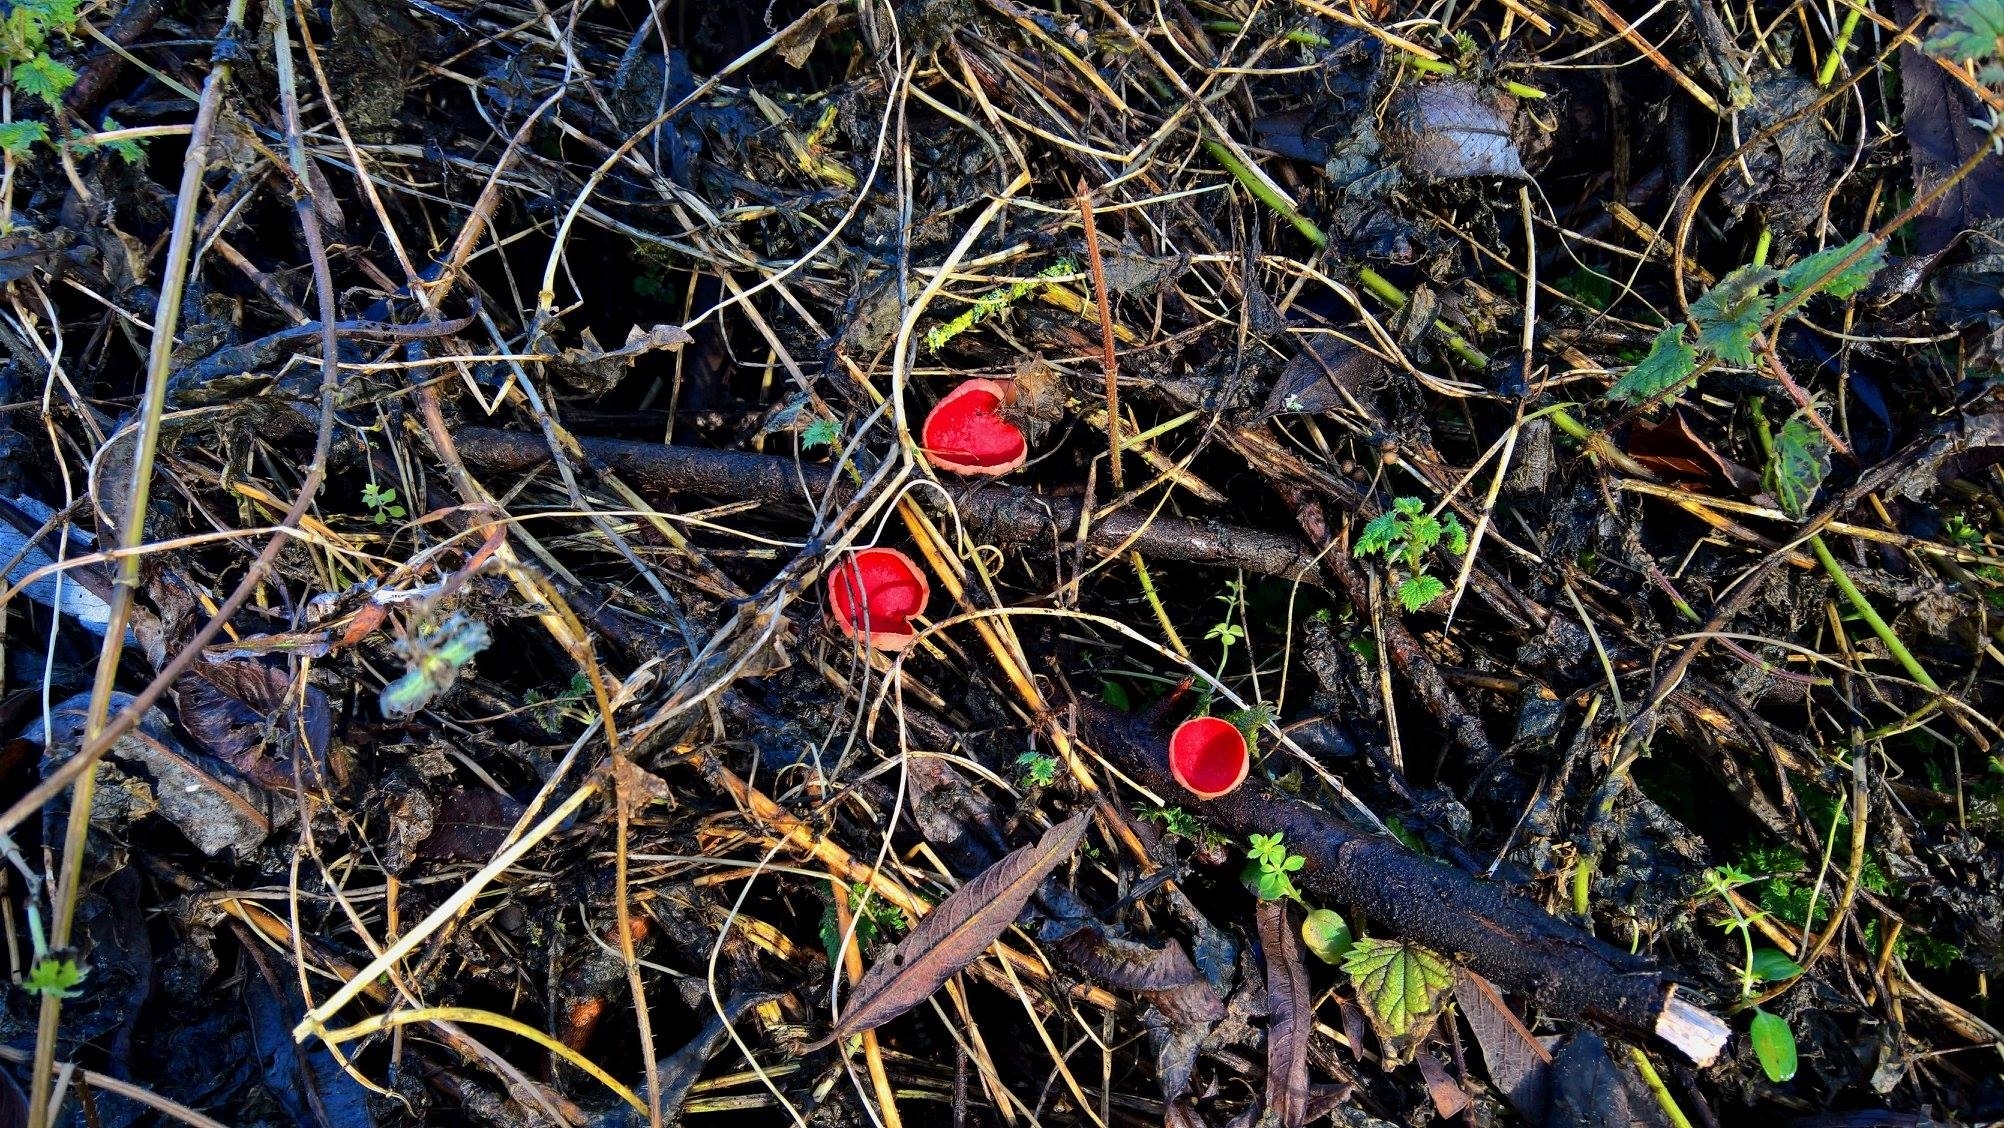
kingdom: Fungi
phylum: Ascomycota
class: Pezizomycetes
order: Pezizales
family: Sarcoscyphaceae
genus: Sarcoscypha
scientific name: Sarcoscypha
